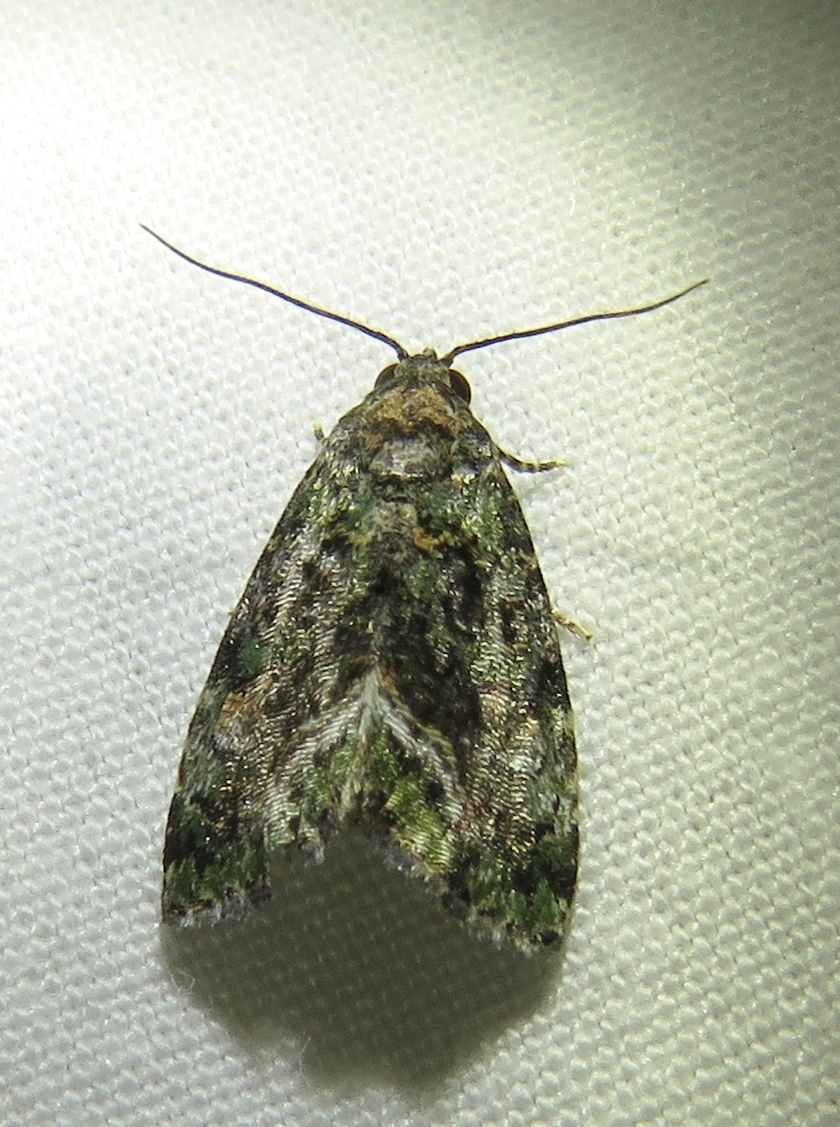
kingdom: Animalia
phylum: Arthropoda
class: Insecta
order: Lepidoptera
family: Noctuidae
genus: Lithacodia
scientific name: Lithacodia musta
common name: Small mossy glyph
